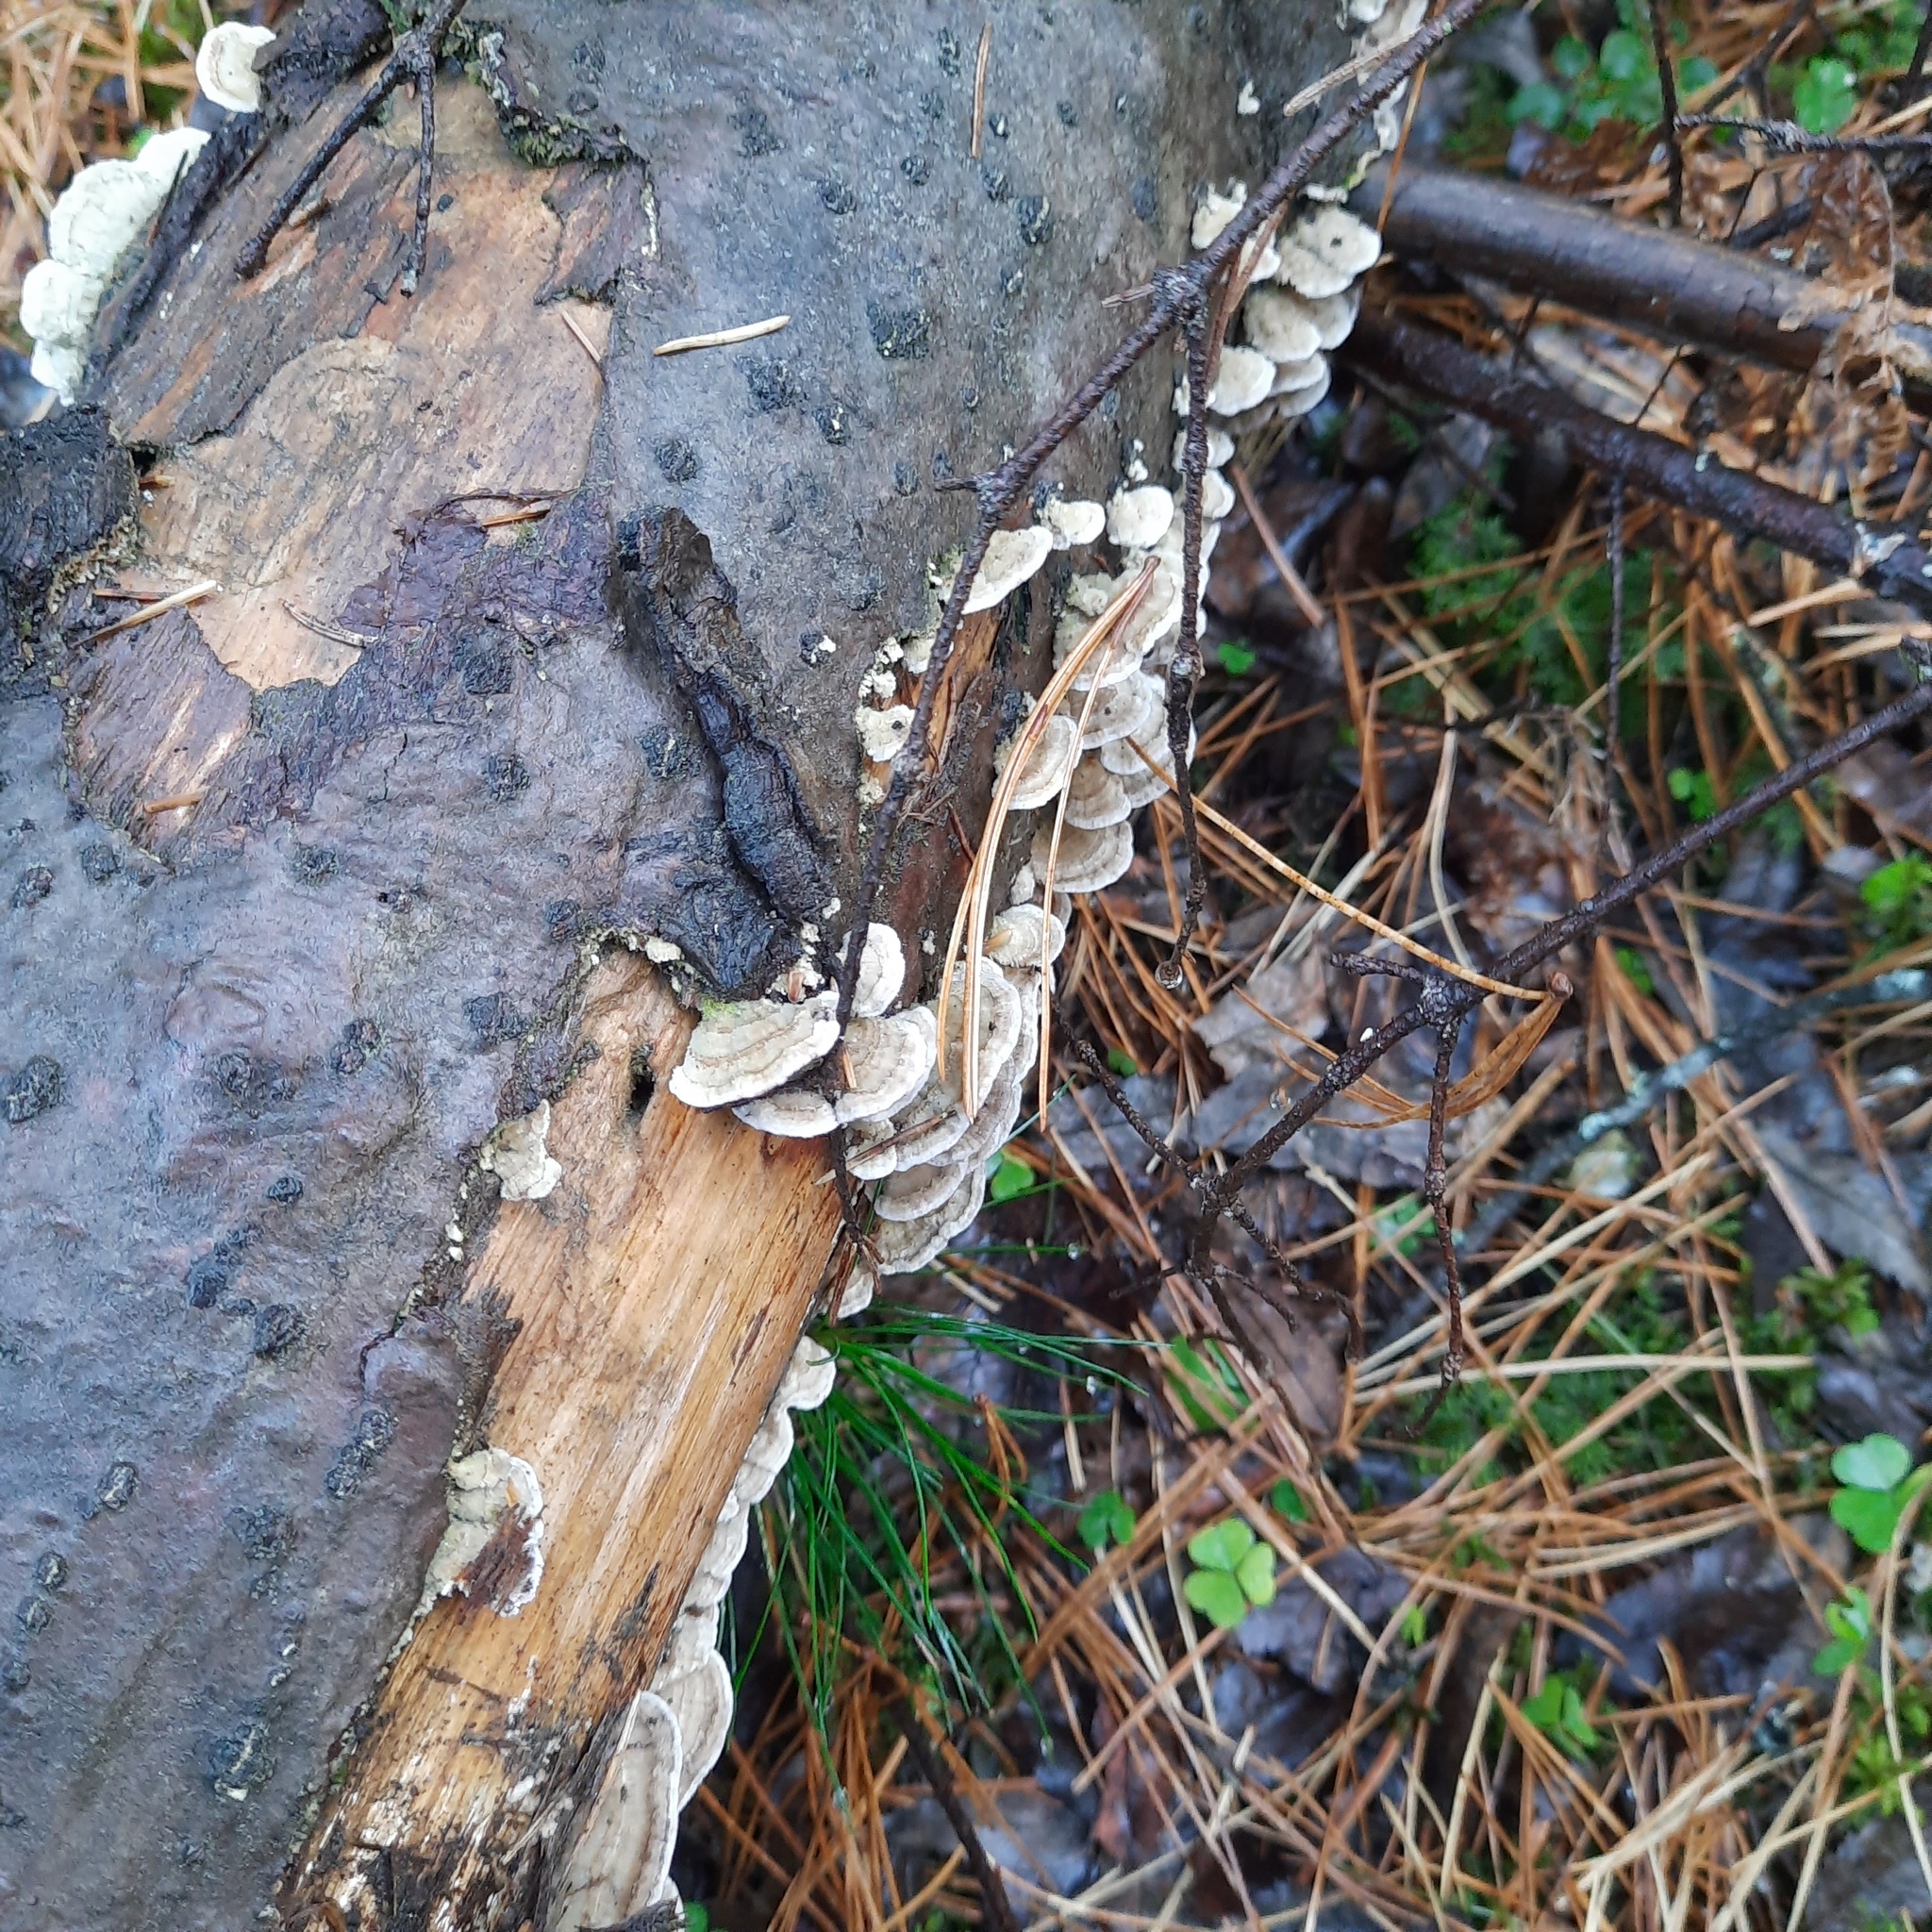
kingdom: Fungi
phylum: Basidiomycota
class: Agaricomycetes
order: Hymenochaetales
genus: Trichaptum
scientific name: Trichaptum fuscoviolaceum
